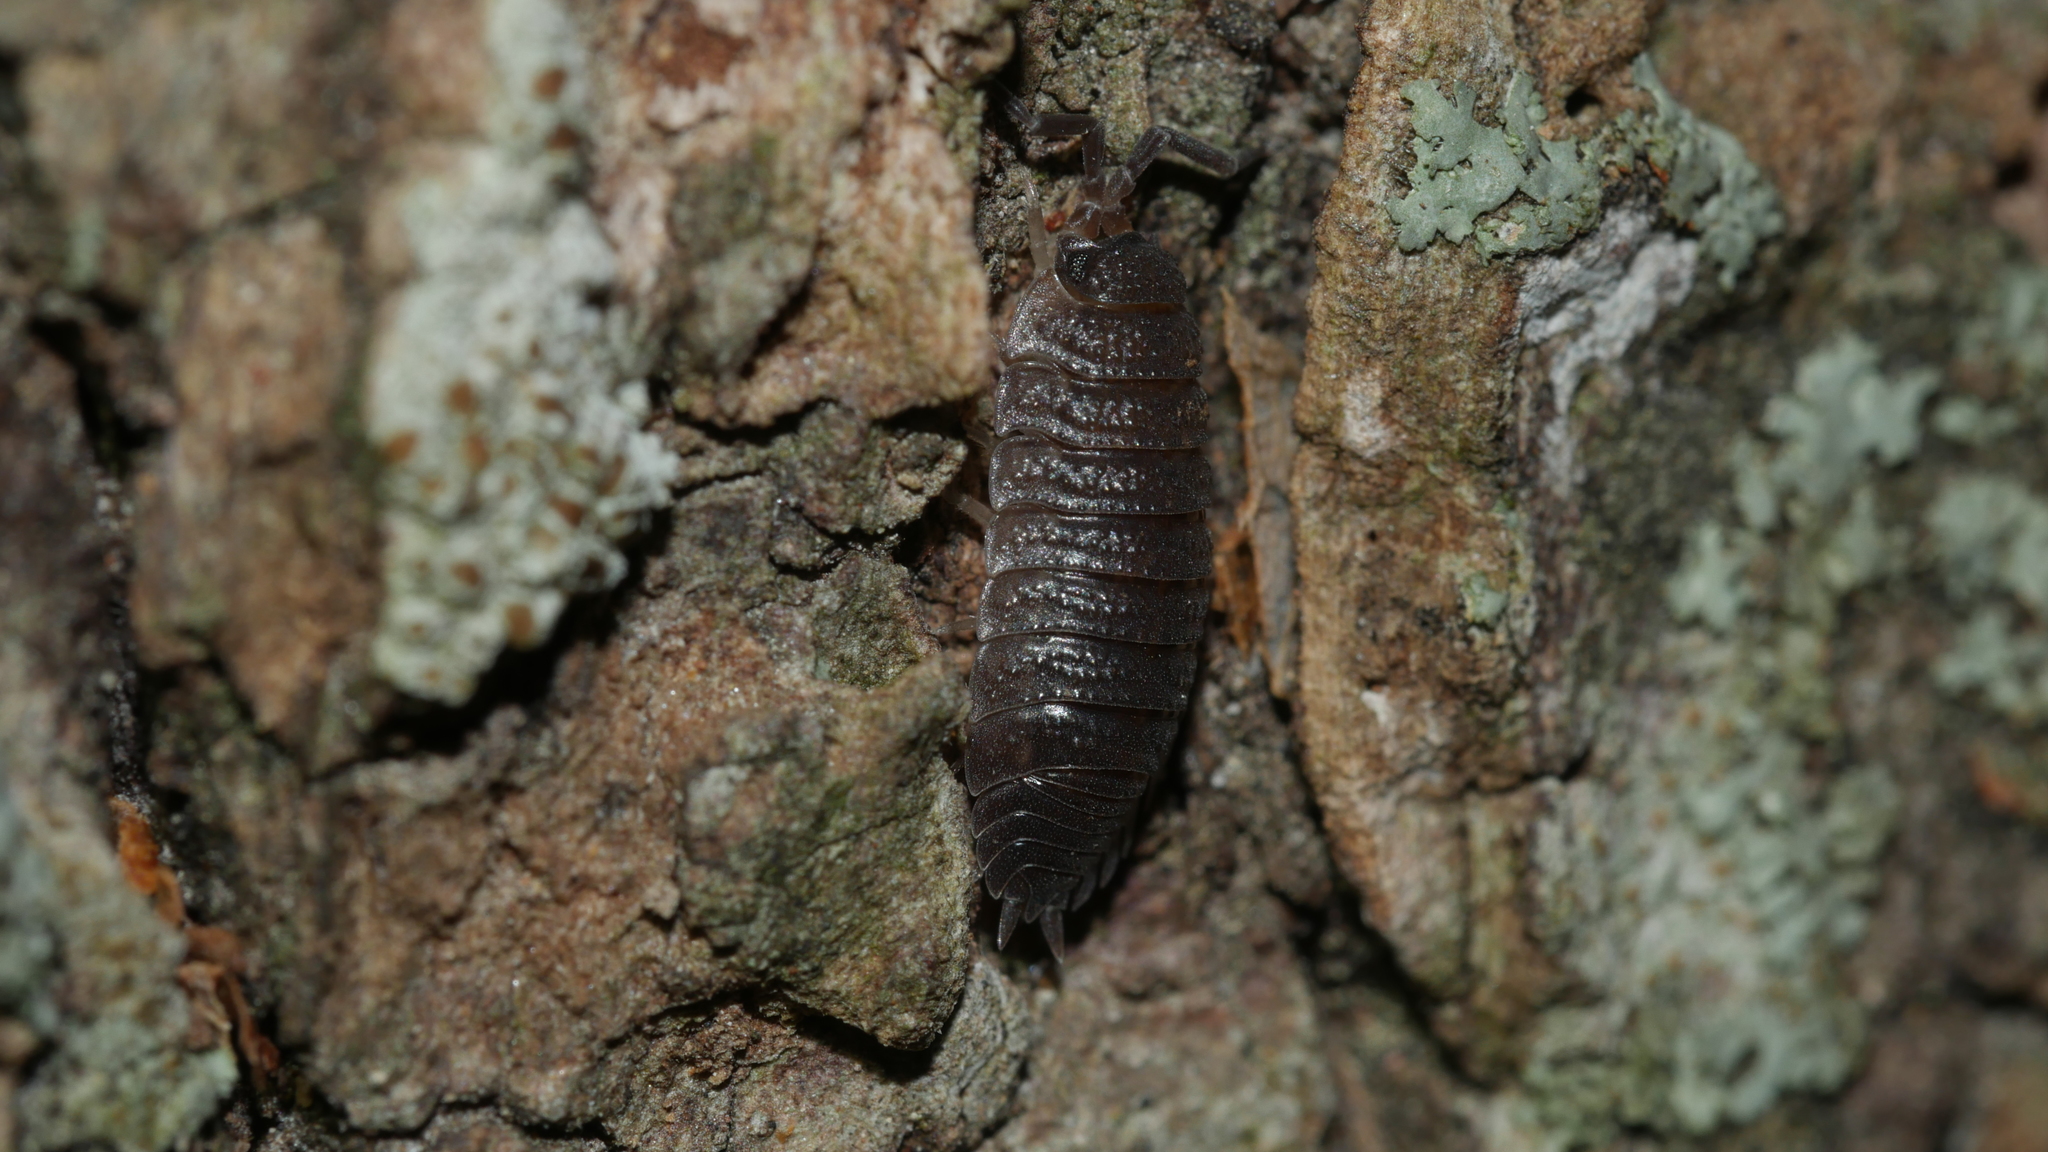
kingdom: Animalia
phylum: Arthropoda
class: Malacostraca
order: Isopoda
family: Porcellionidae
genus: Porcellio
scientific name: Porcellio scaber
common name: Common rough woodlouse
